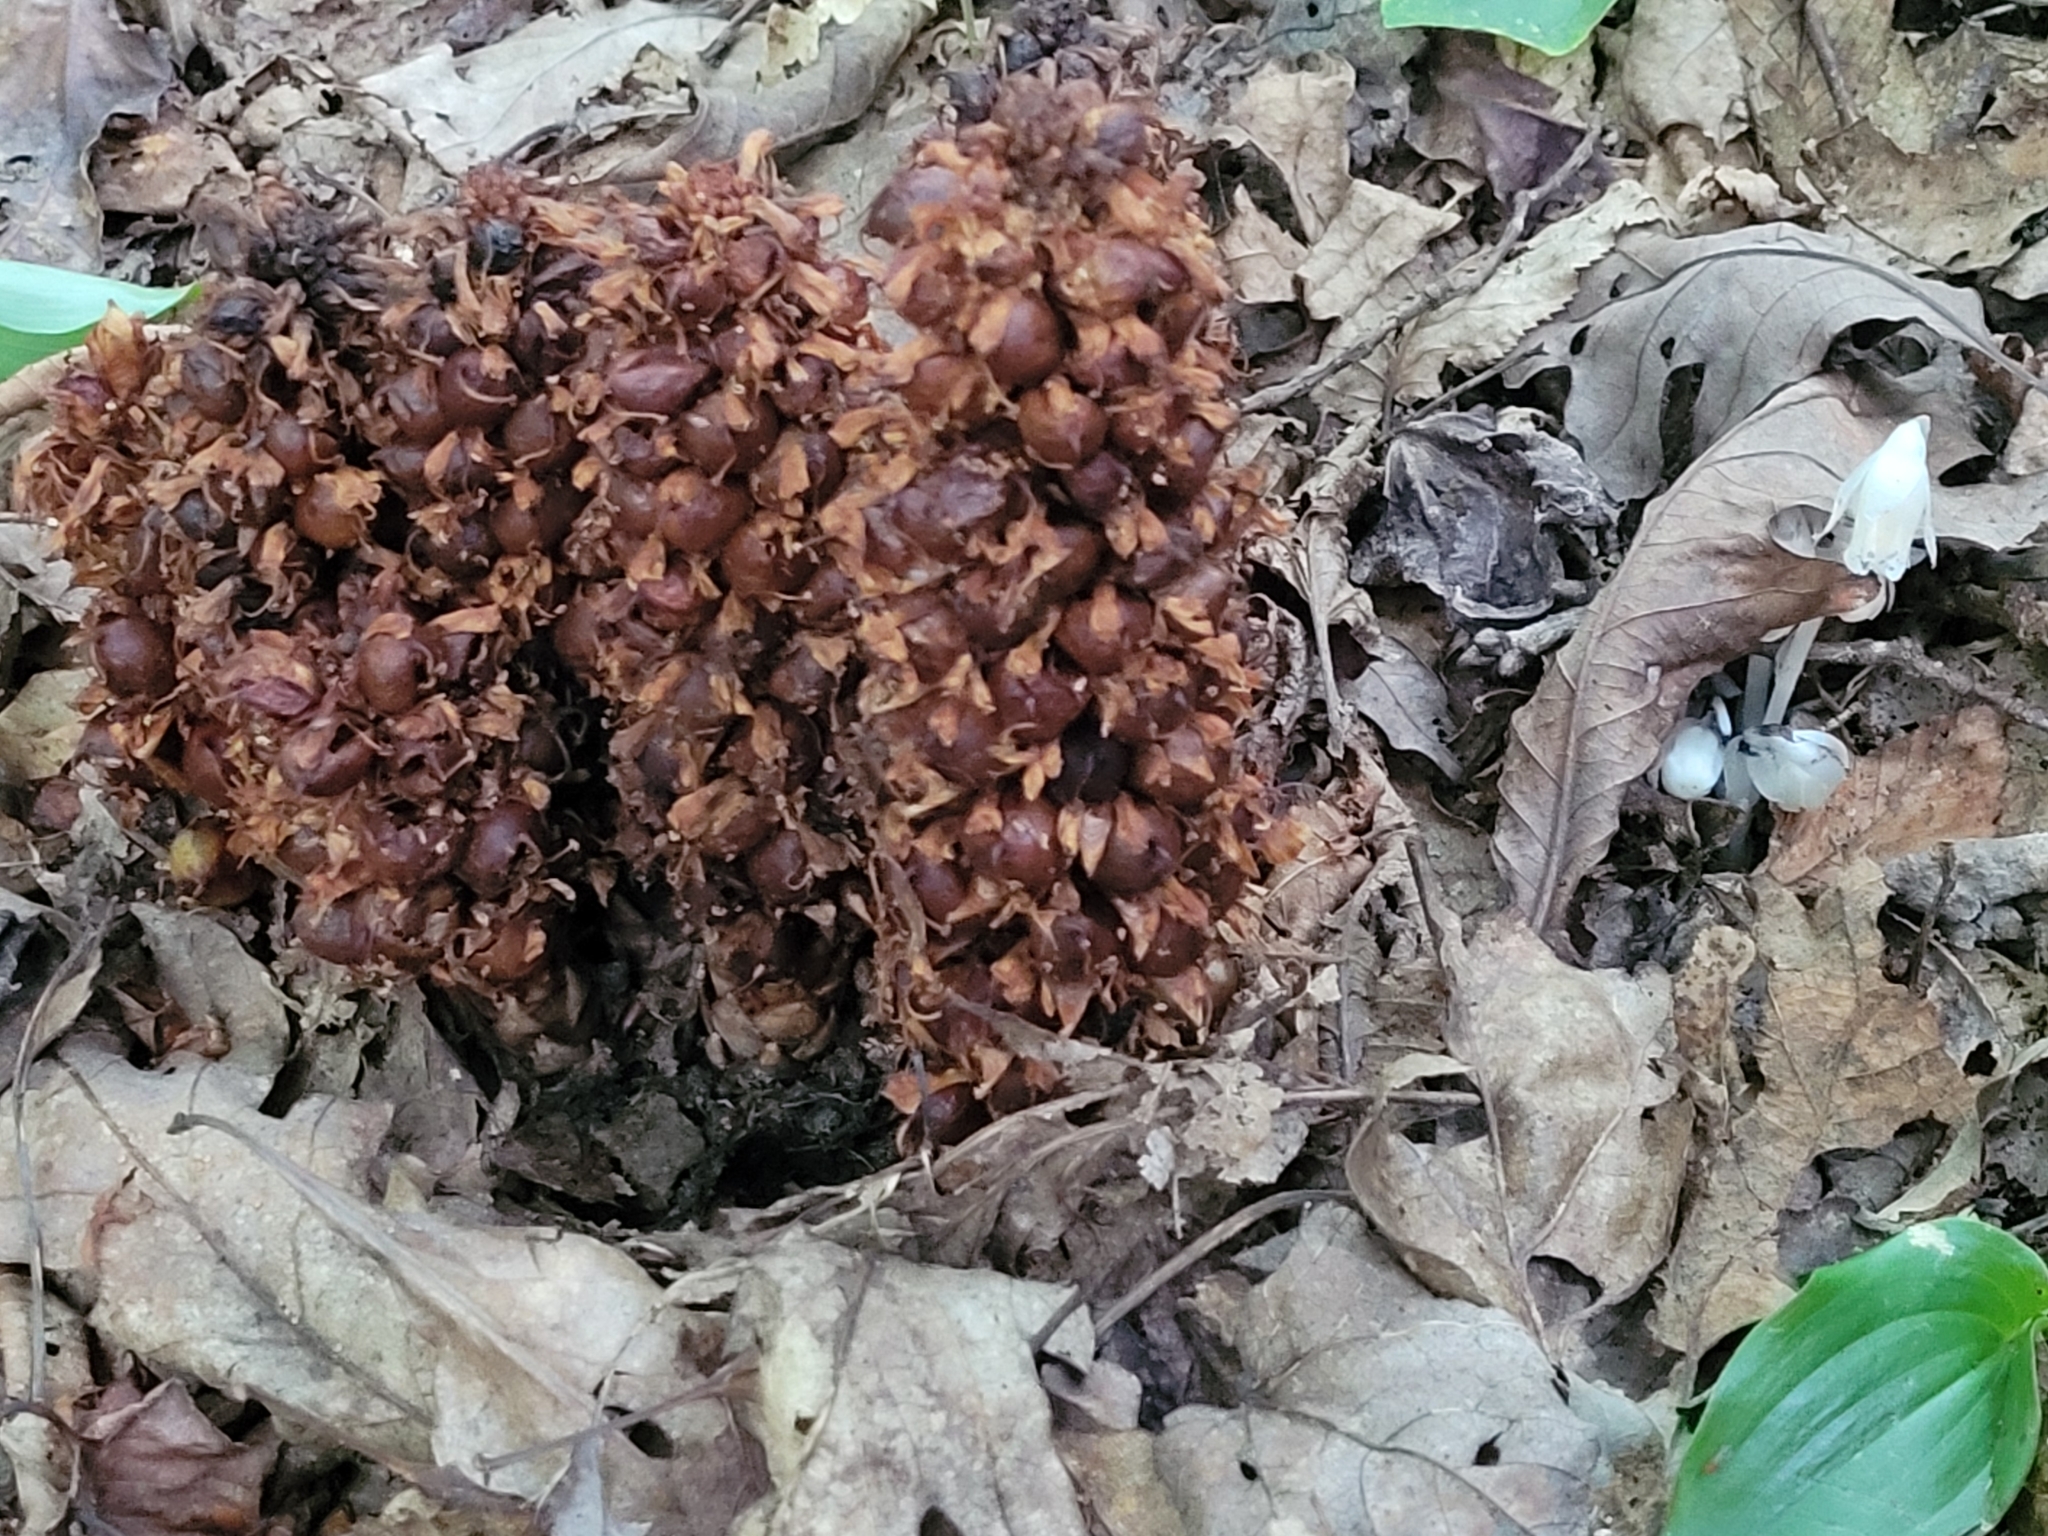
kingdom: Plantae
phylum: Tracheophyta
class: Magnoliopsida
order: Lamiales
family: Orobanchaceae
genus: Conopholis
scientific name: Conopholis americana
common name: American cancer-root
